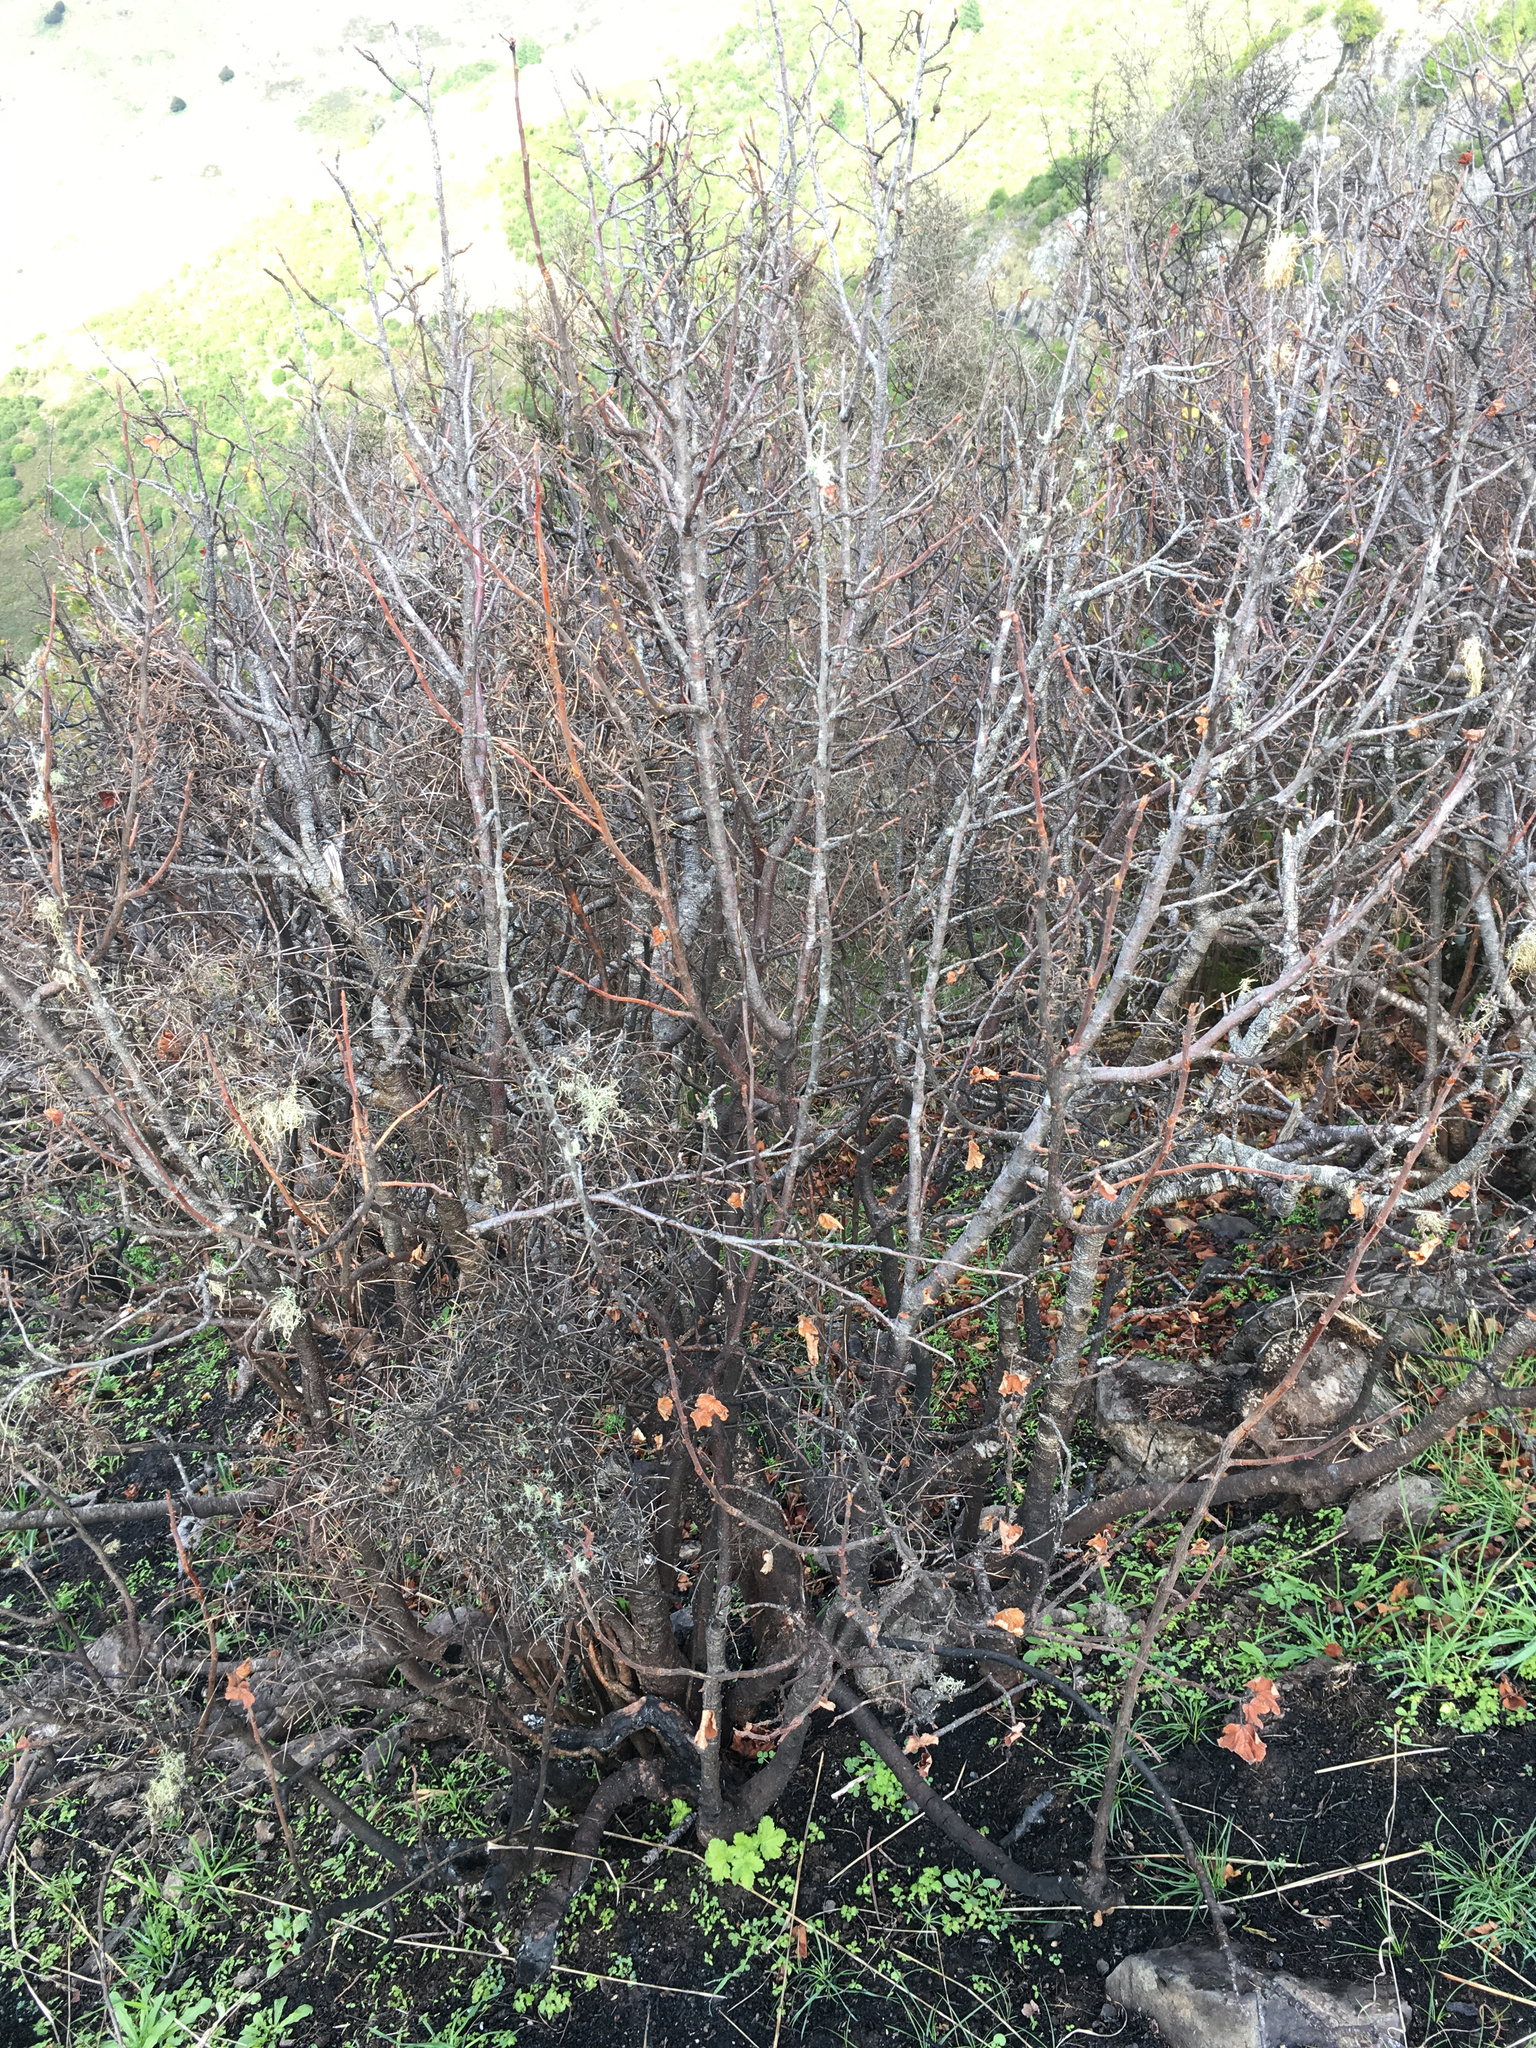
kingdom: Plantae
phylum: Tracheophyta
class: Magnoliopsida
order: Saxifragales
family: Grossulariaceae
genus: Ribes
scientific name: Ribes nigrum
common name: Black currant
